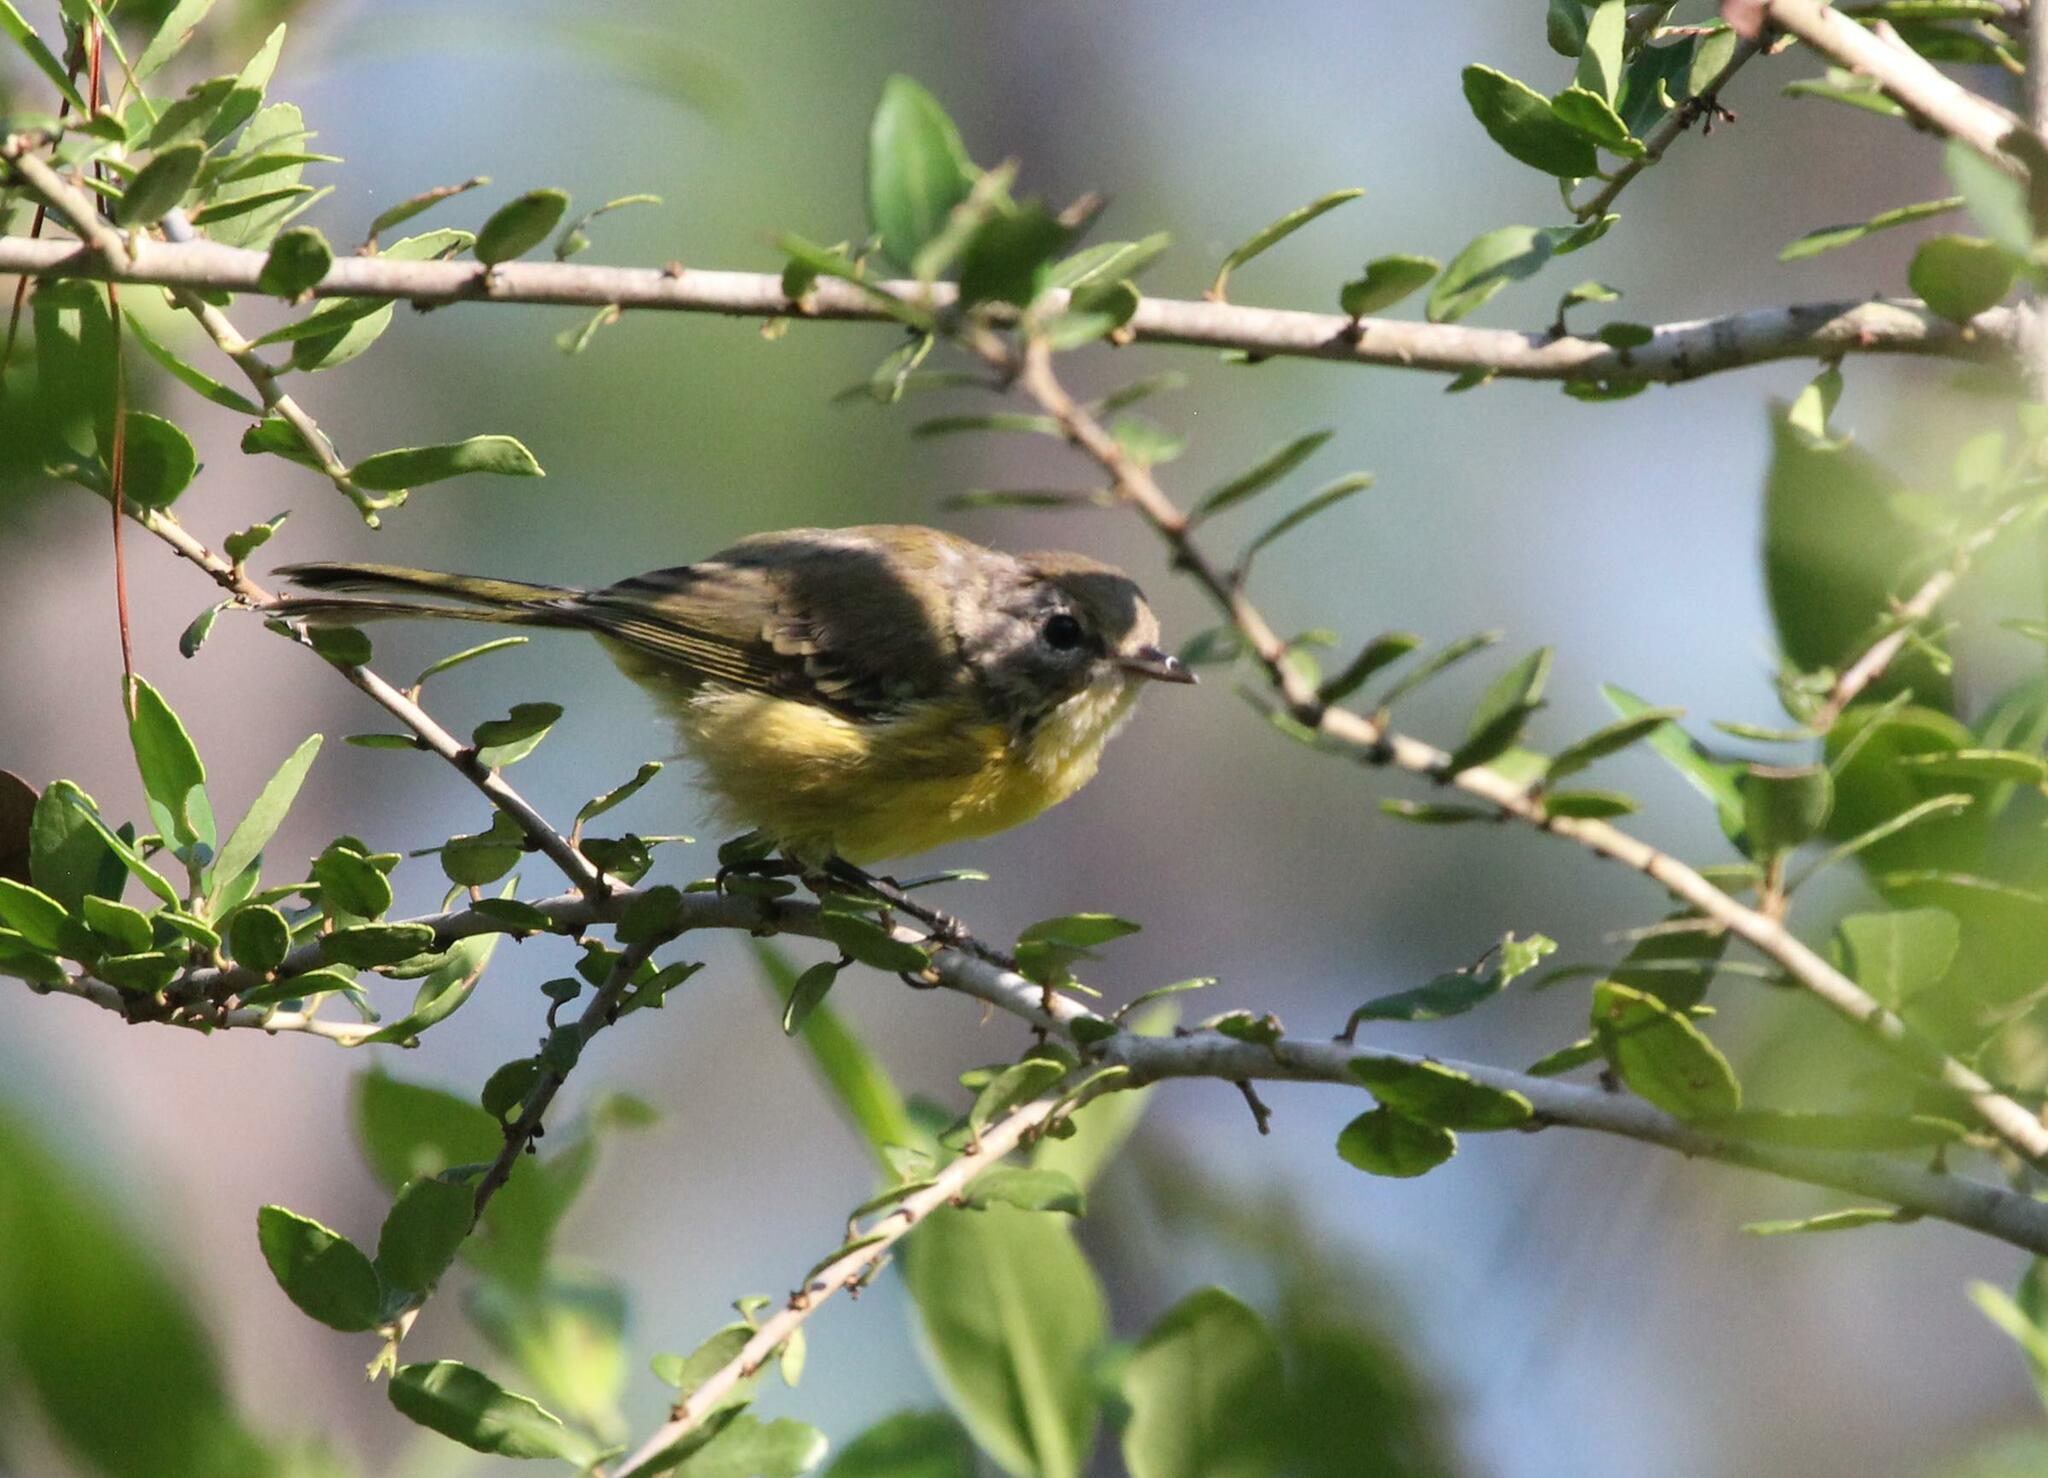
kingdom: Animalia
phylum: Chordata
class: Aves
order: Passeriformes
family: Parulidae
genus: Setophaga
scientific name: Setophaga discolor
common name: Prairie warbler
